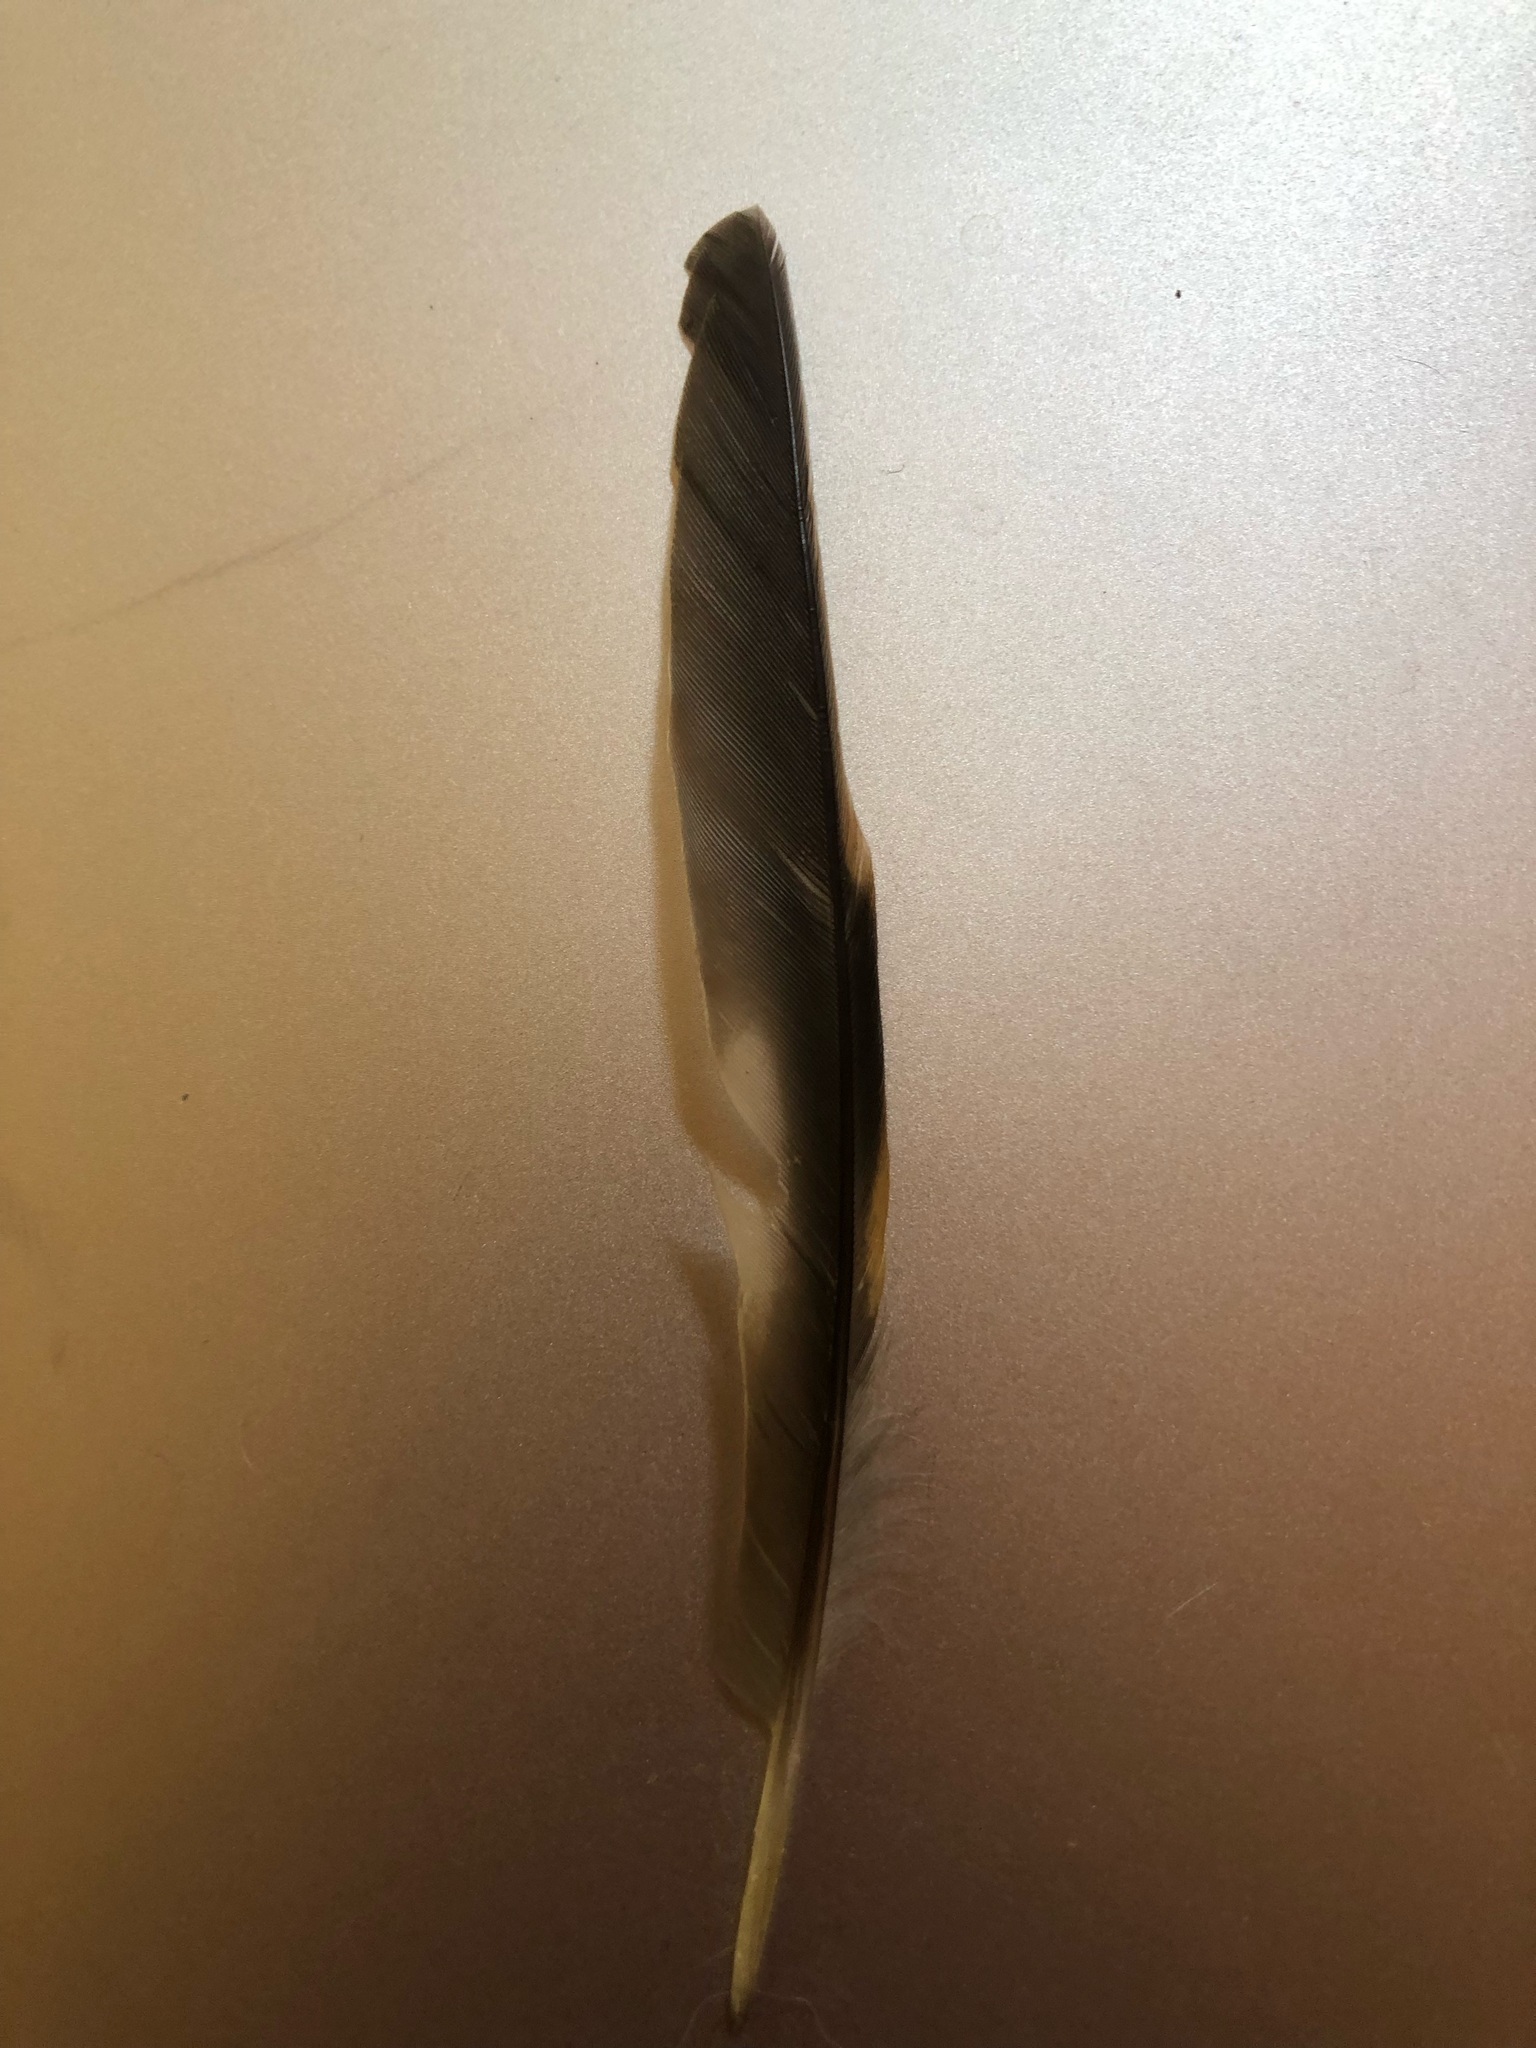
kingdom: Animalia
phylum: Chordata
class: Aves
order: Passeriformes
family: Turdidae
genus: Ixoreus
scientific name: Ixoreus naevius
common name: Varied thrush
